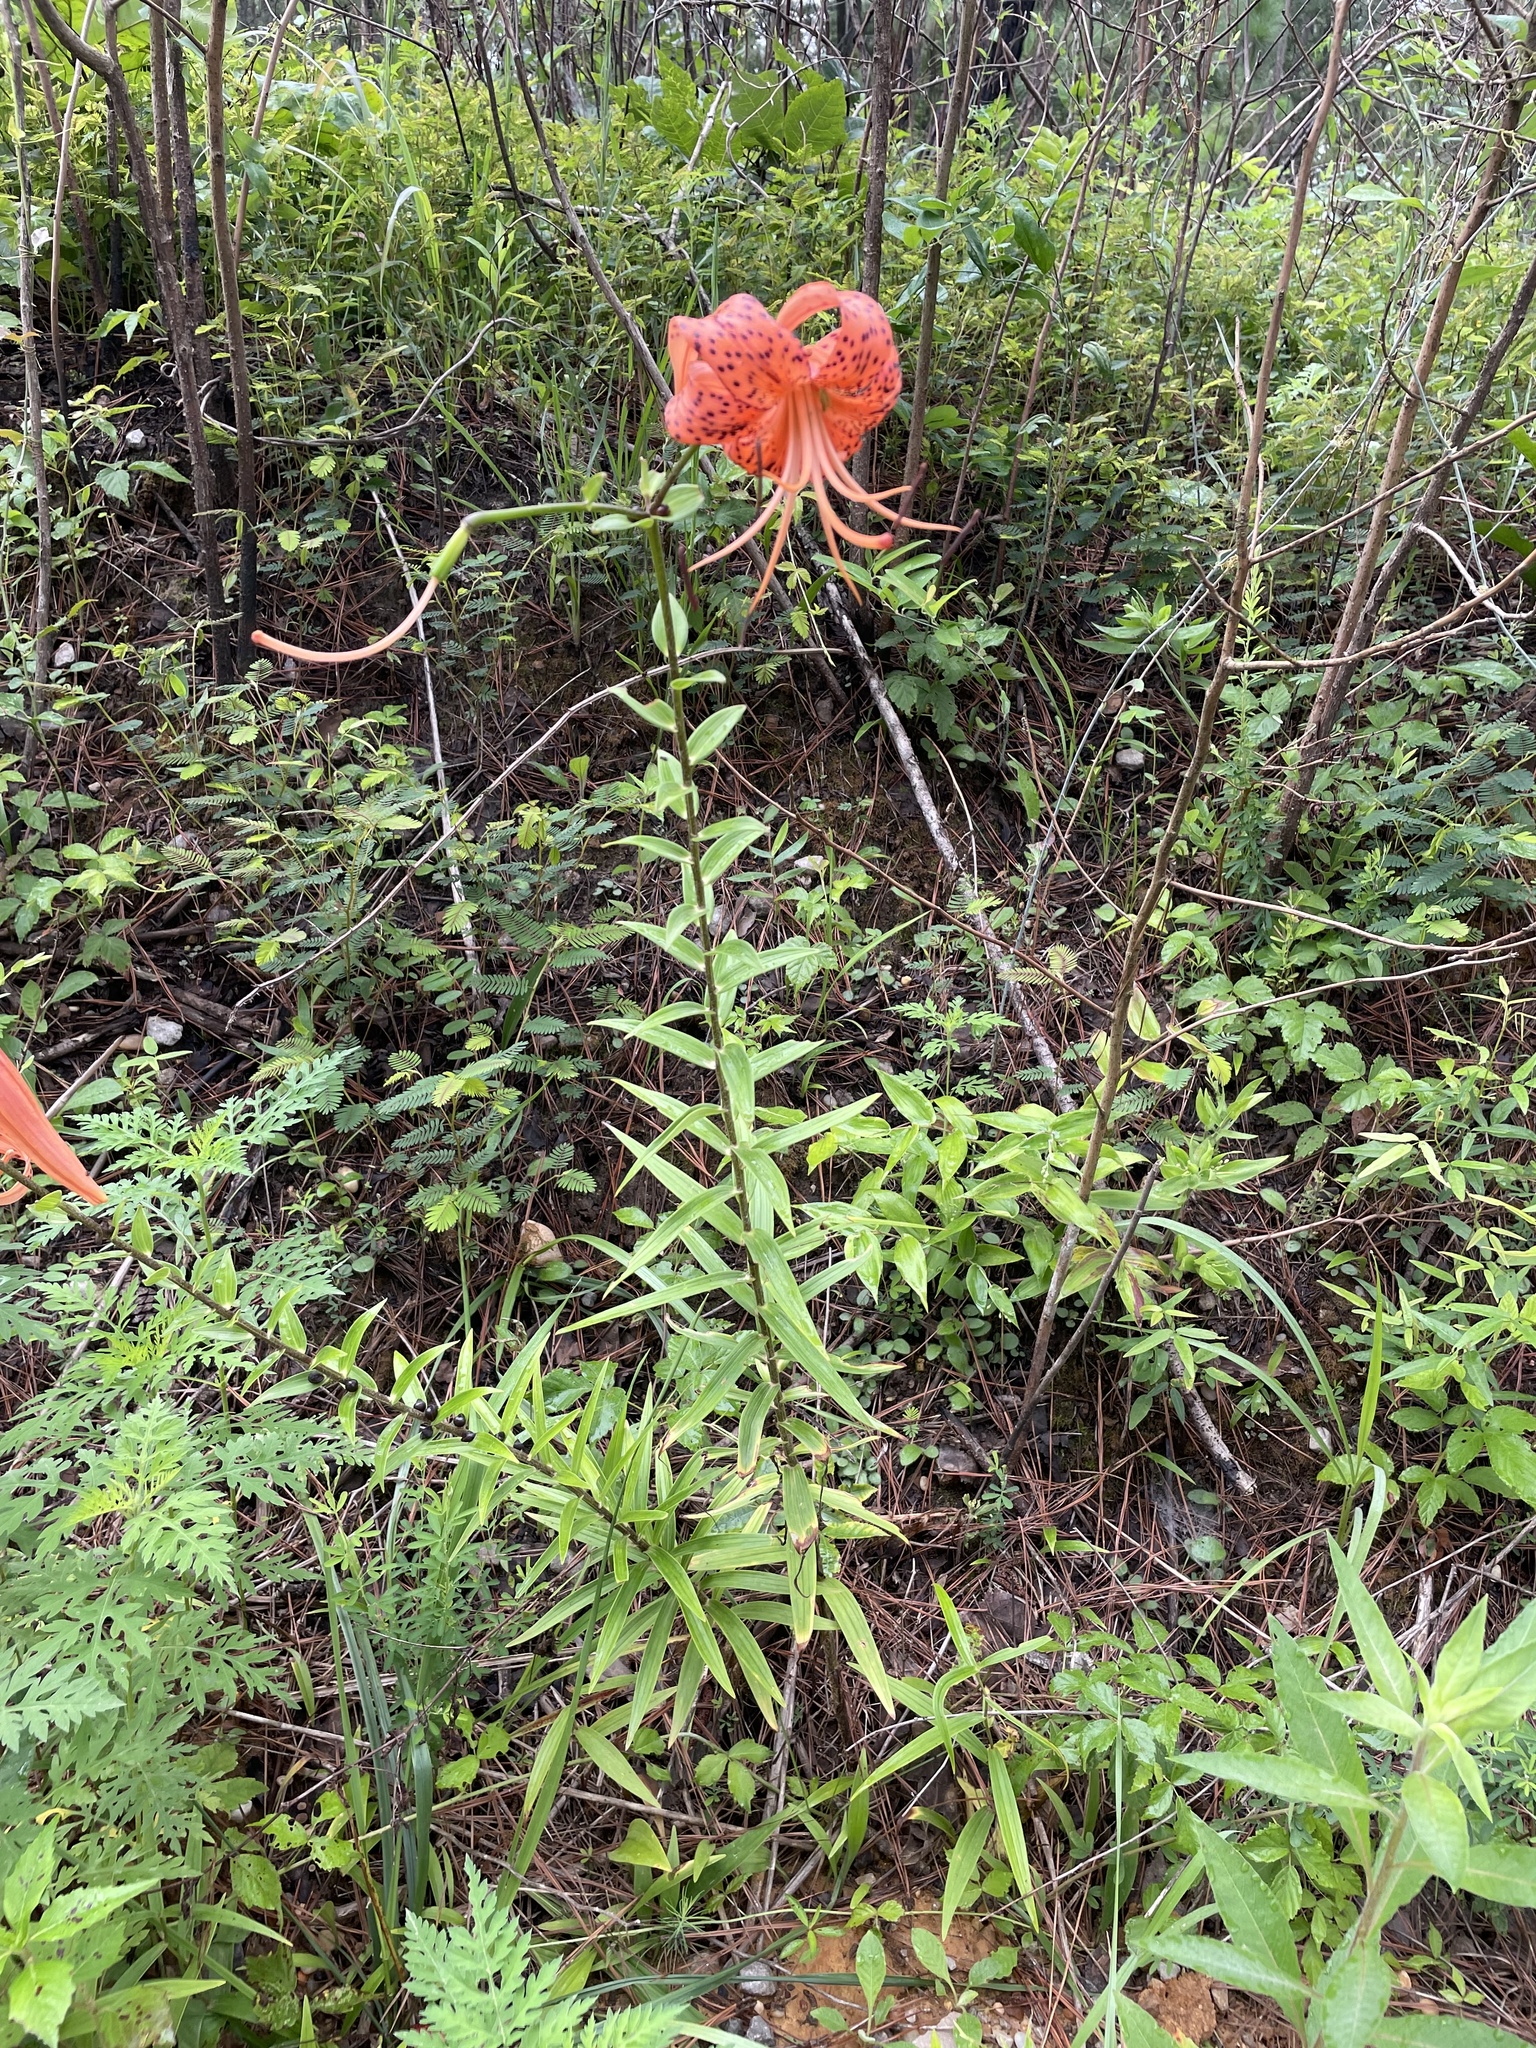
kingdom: Plantae
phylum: Tracheophyta
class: Liliopsida
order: Liliales
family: Liliaceae
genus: Lilium
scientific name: Lilium lancifolium
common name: Tiger lily
